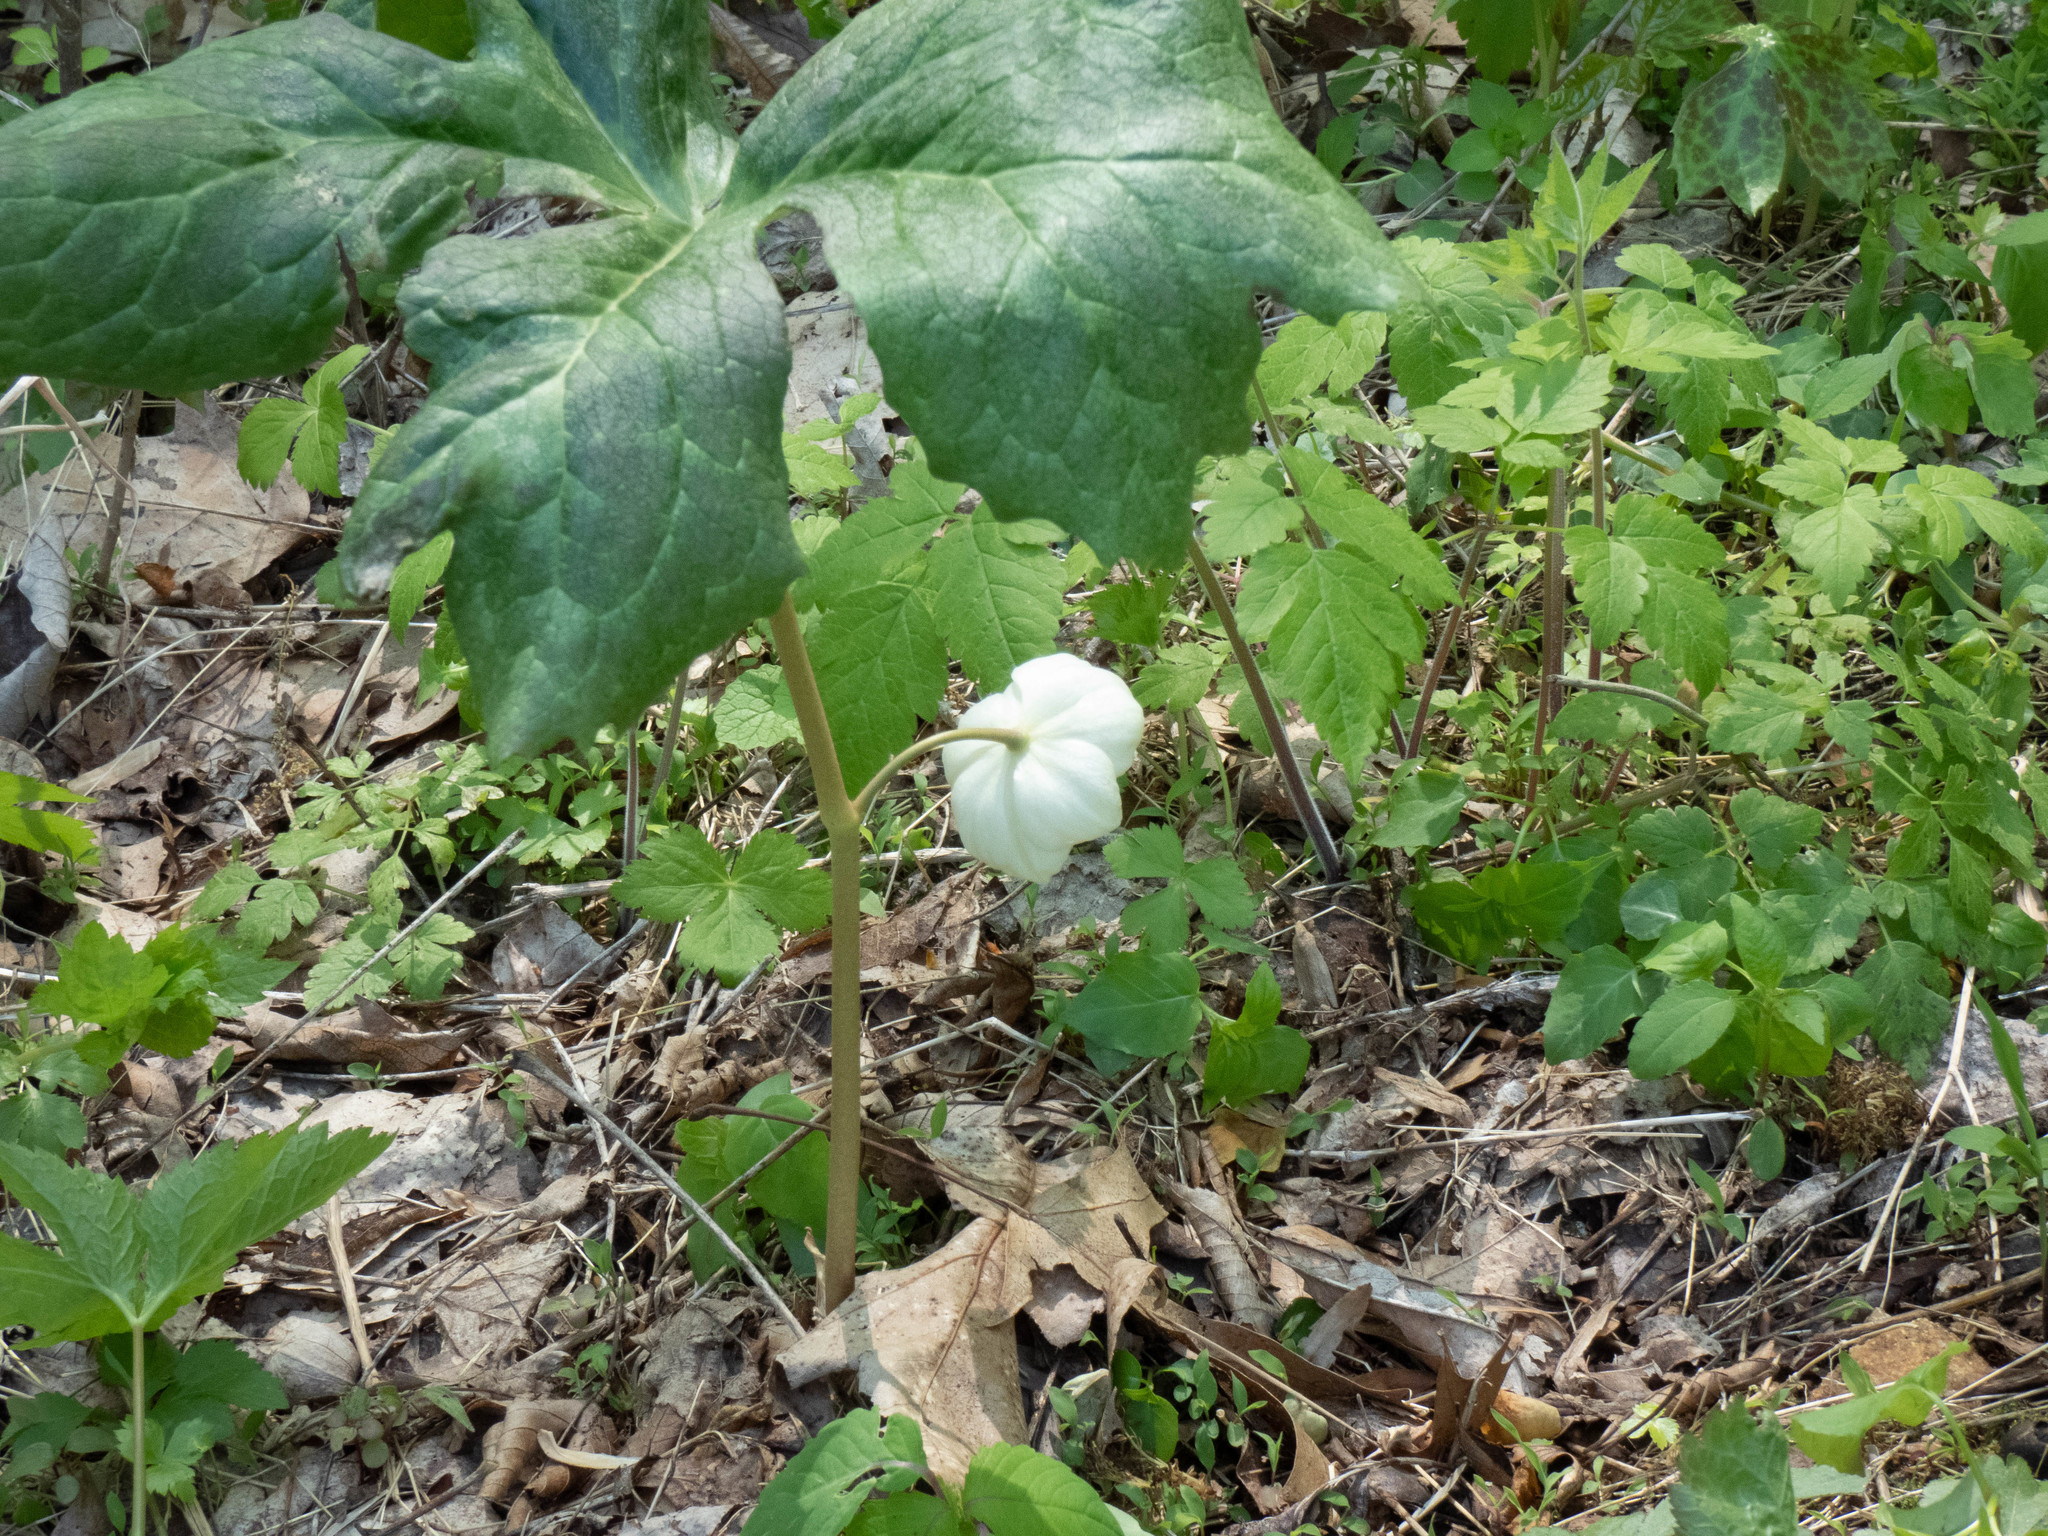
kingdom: Plantae
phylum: Tracheophyta
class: Magnoliopsida
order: Ranunculales
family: Berberidaceae
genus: Podophyllum
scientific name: Podophyllum peltatum
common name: Wild mandrake
